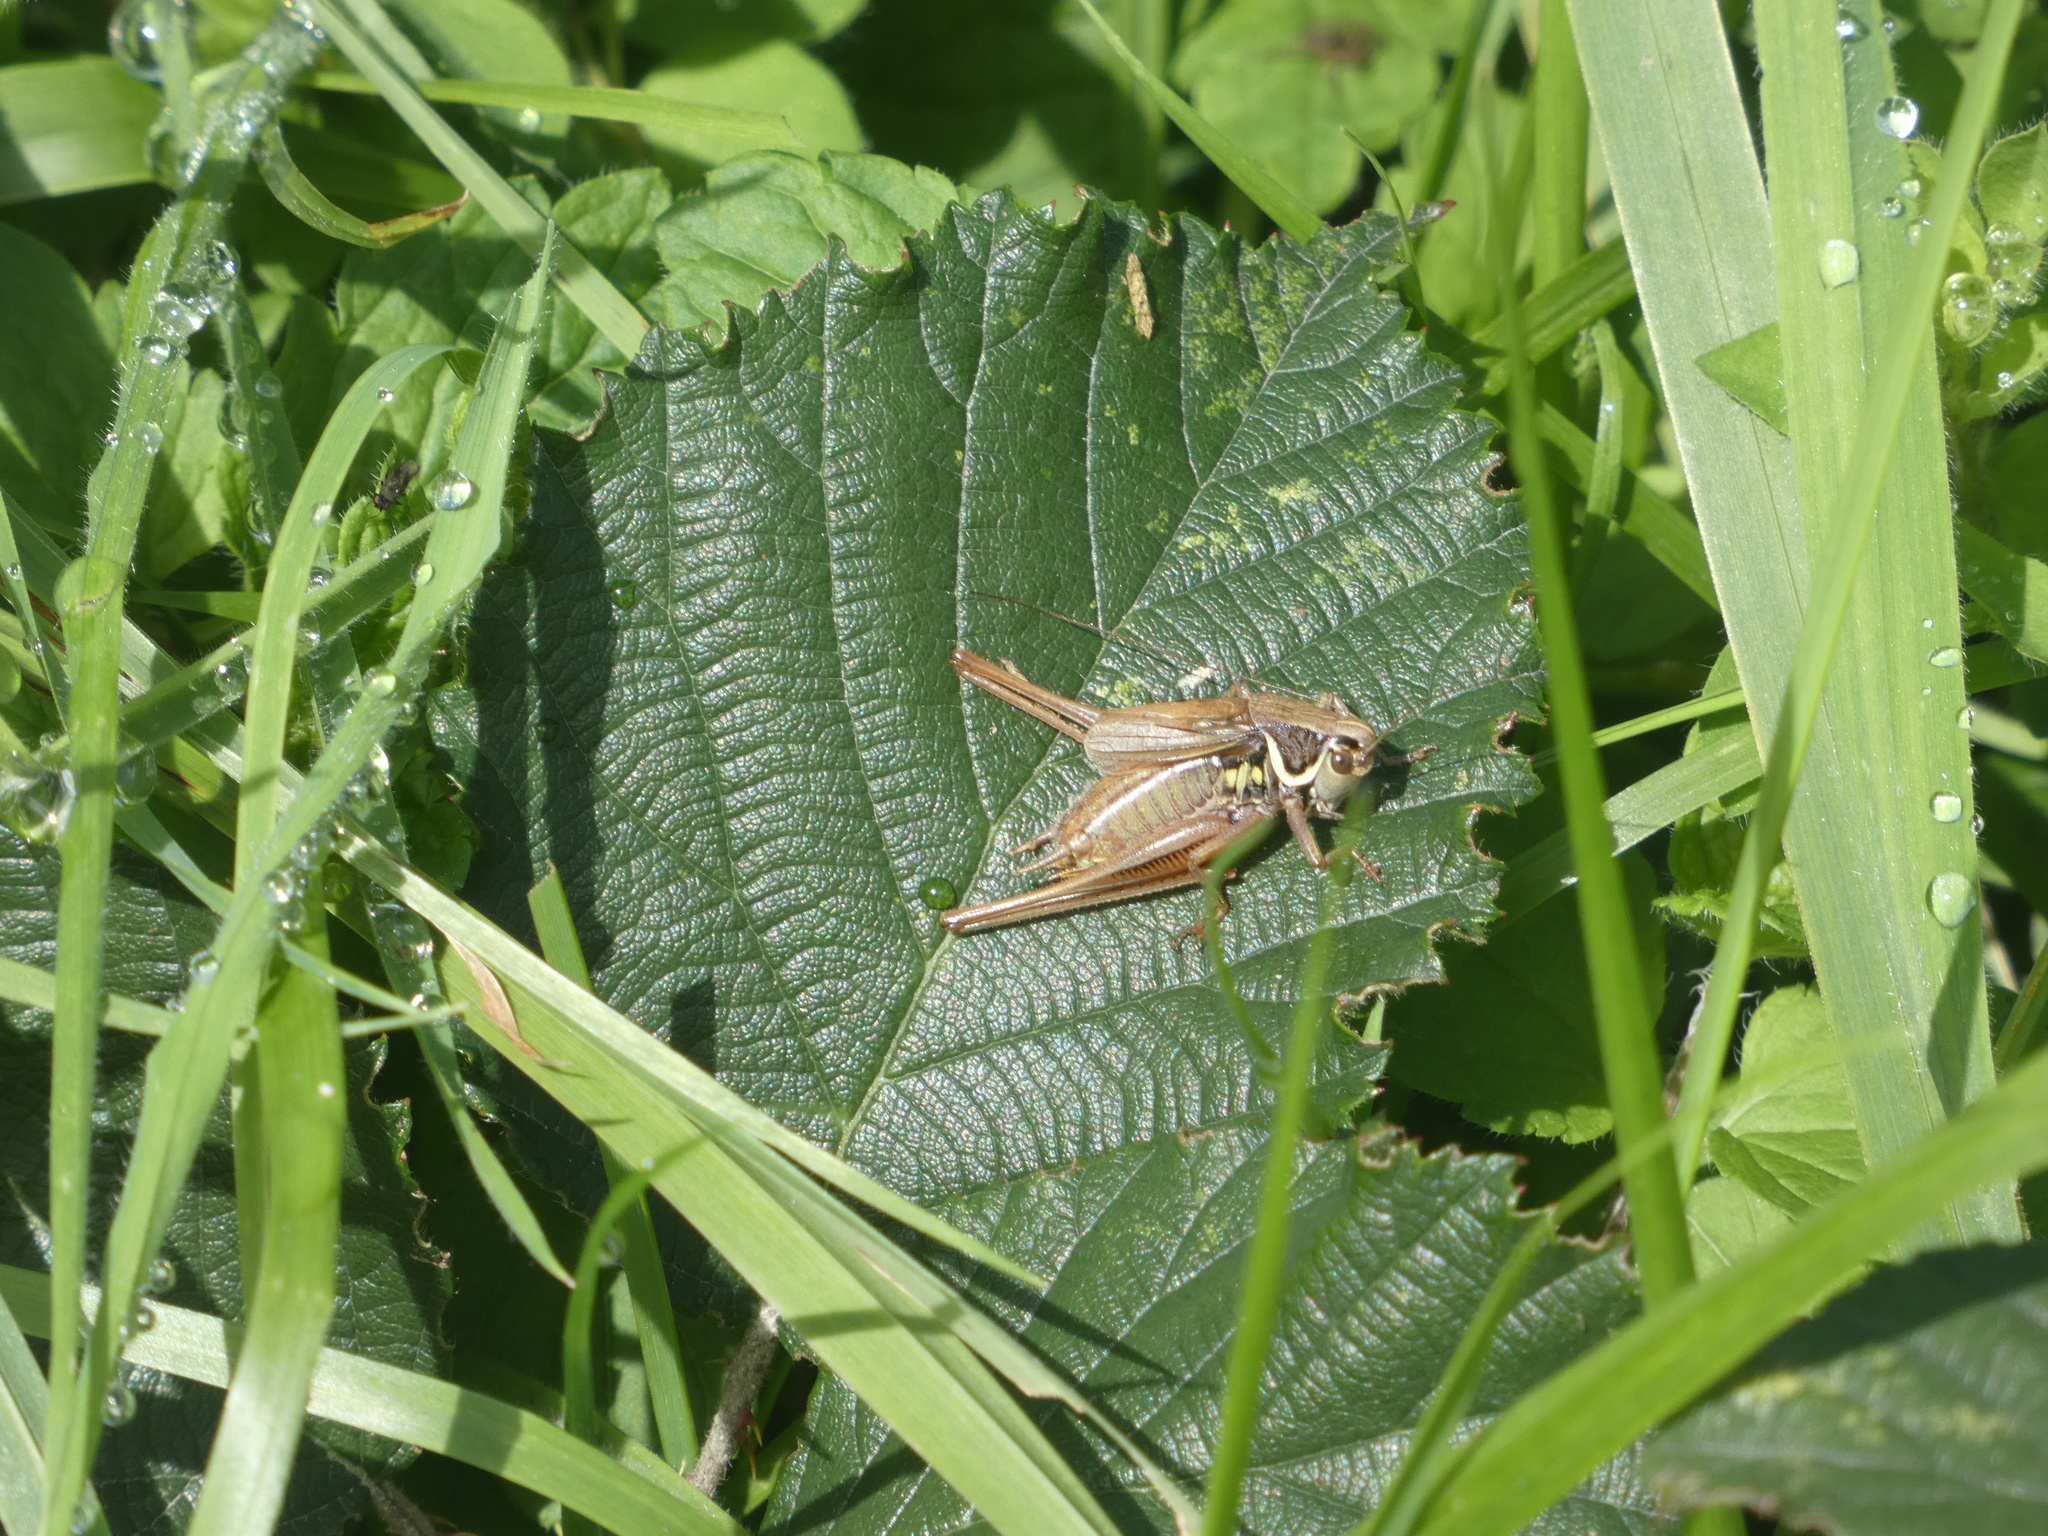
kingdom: Animalia
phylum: Arthropoda
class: Insecta
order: Orthoptera
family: Tettigoniidae
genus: Roeseliana
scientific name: Roeseliana roeselii
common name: Roesel's bush cricket
